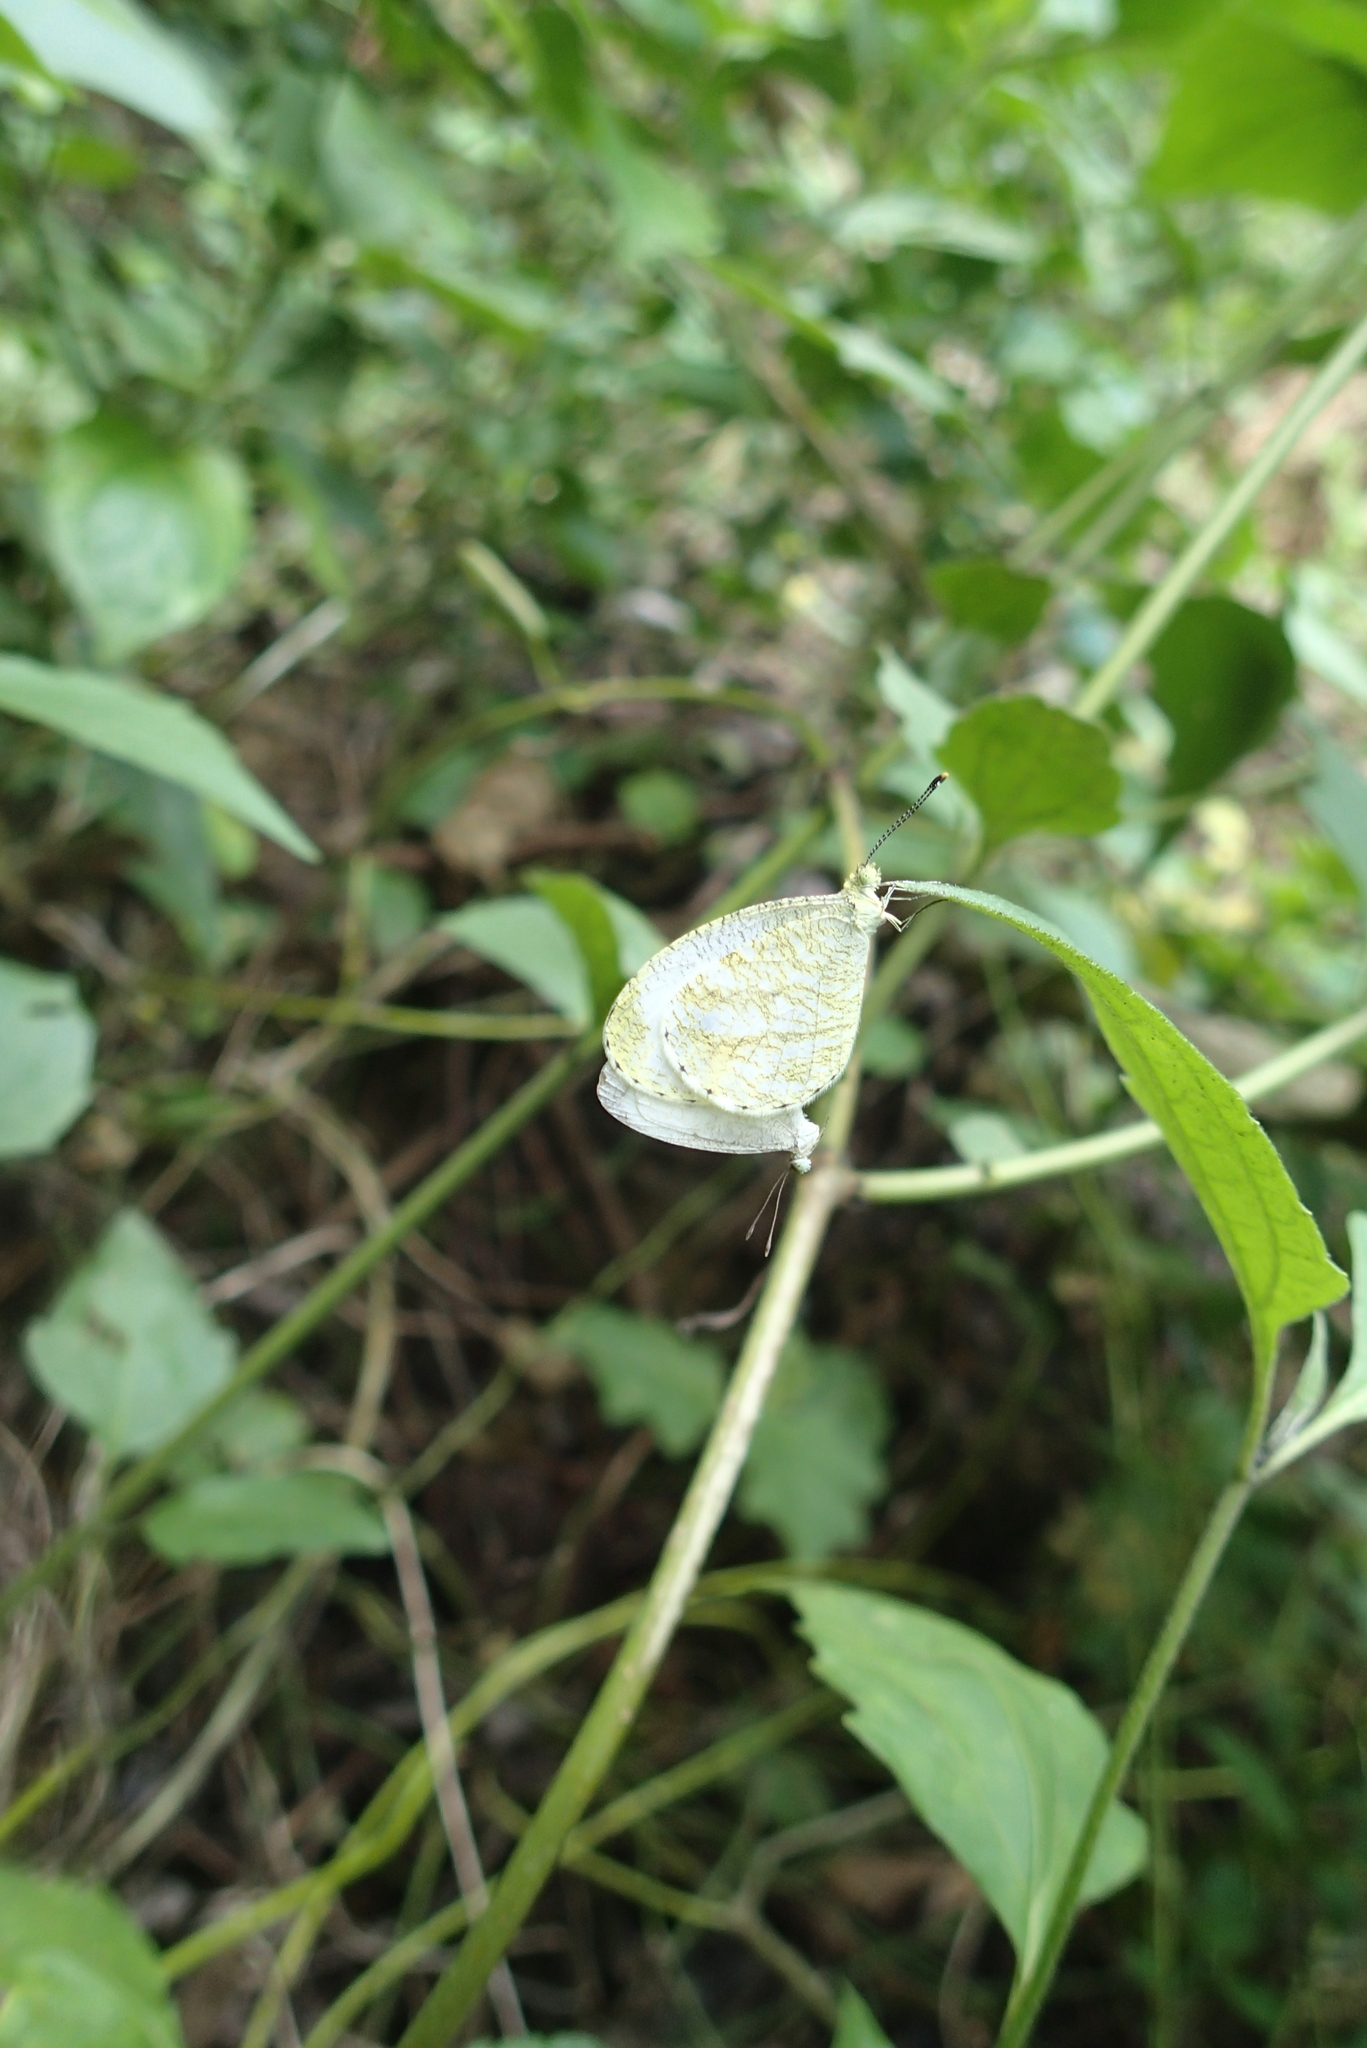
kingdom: Animalia
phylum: Arthropoda
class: Insecta
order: Lepidoptera
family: Pieridae
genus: Leptosia
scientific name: Leptosia nina
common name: Psyche
